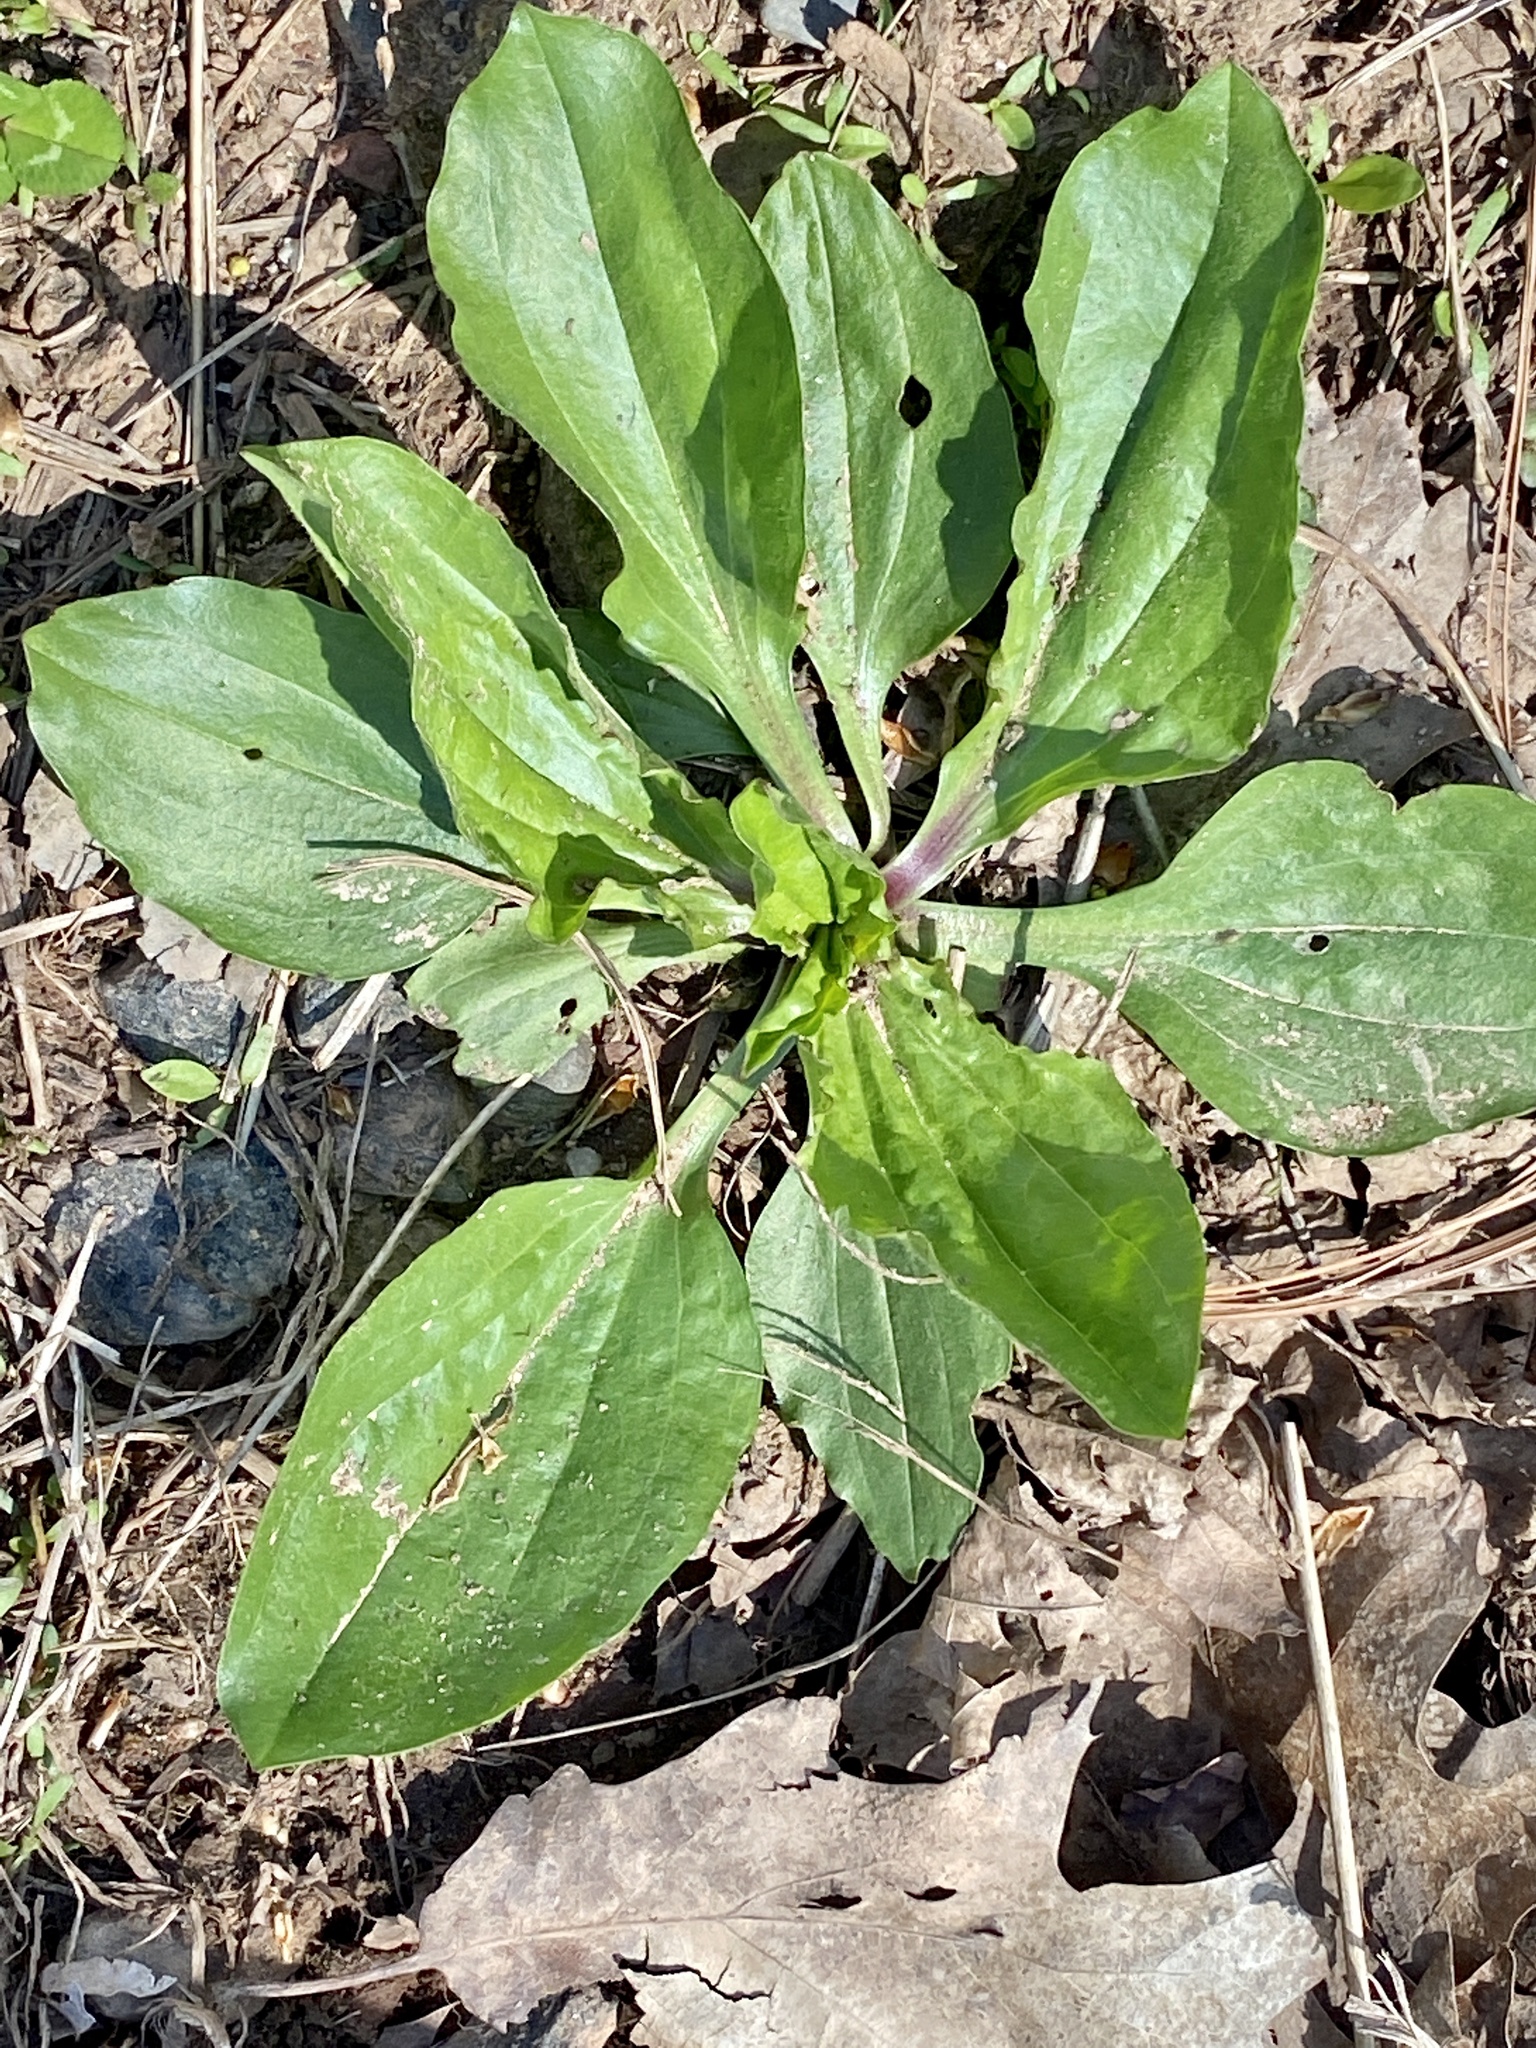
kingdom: Plantae
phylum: Tracheophyta
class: Magnoliopsida
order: Lamiales
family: Plantaginaceae
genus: Plantago
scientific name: Plantago rugelii
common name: American plantain
